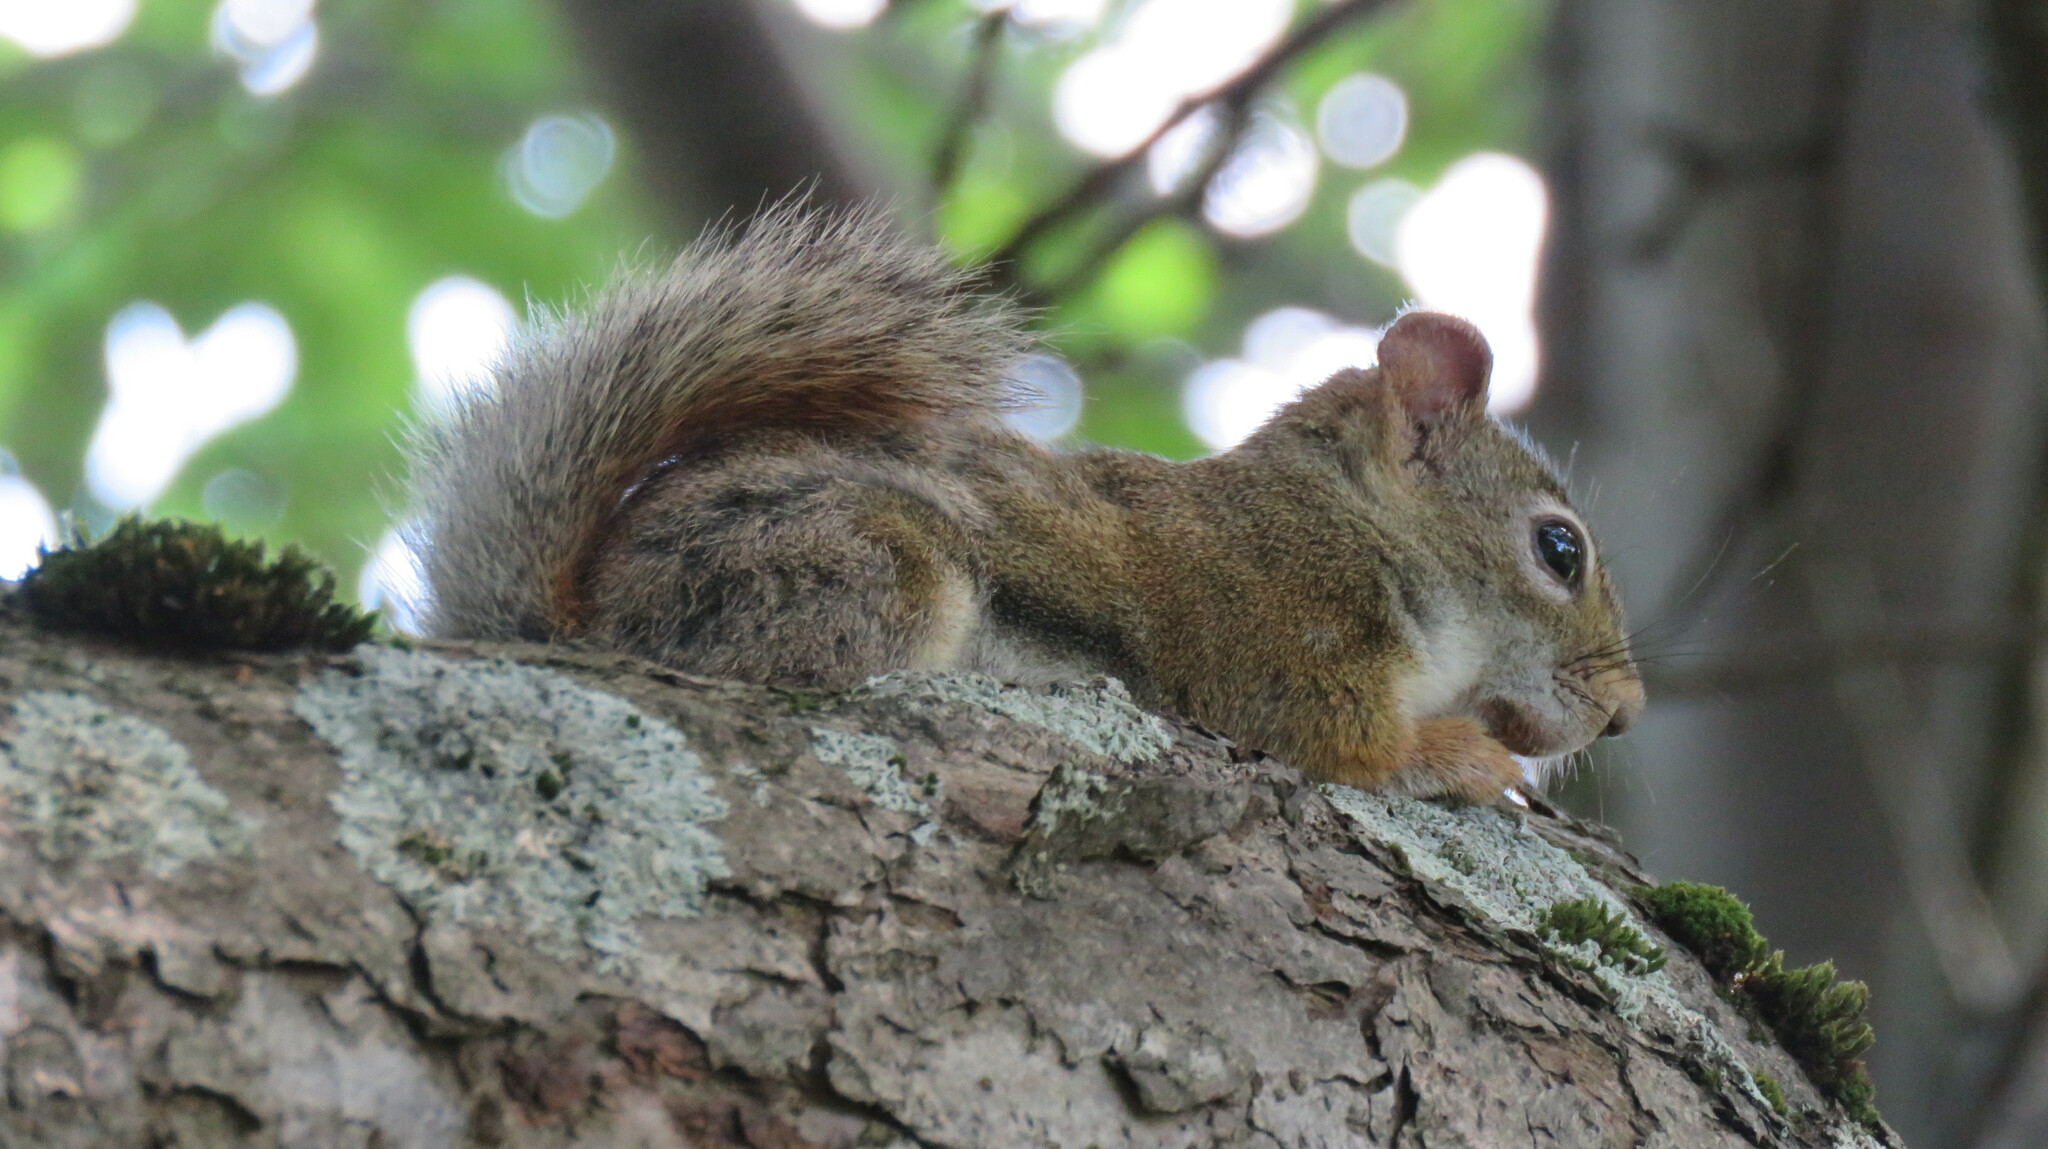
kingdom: Animalia
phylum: Chordata
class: Mammalia
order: Rodentia
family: Sciuridae
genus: Tamiasciurus
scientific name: Tamiasciurus hudsonicus
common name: Red squirrel
